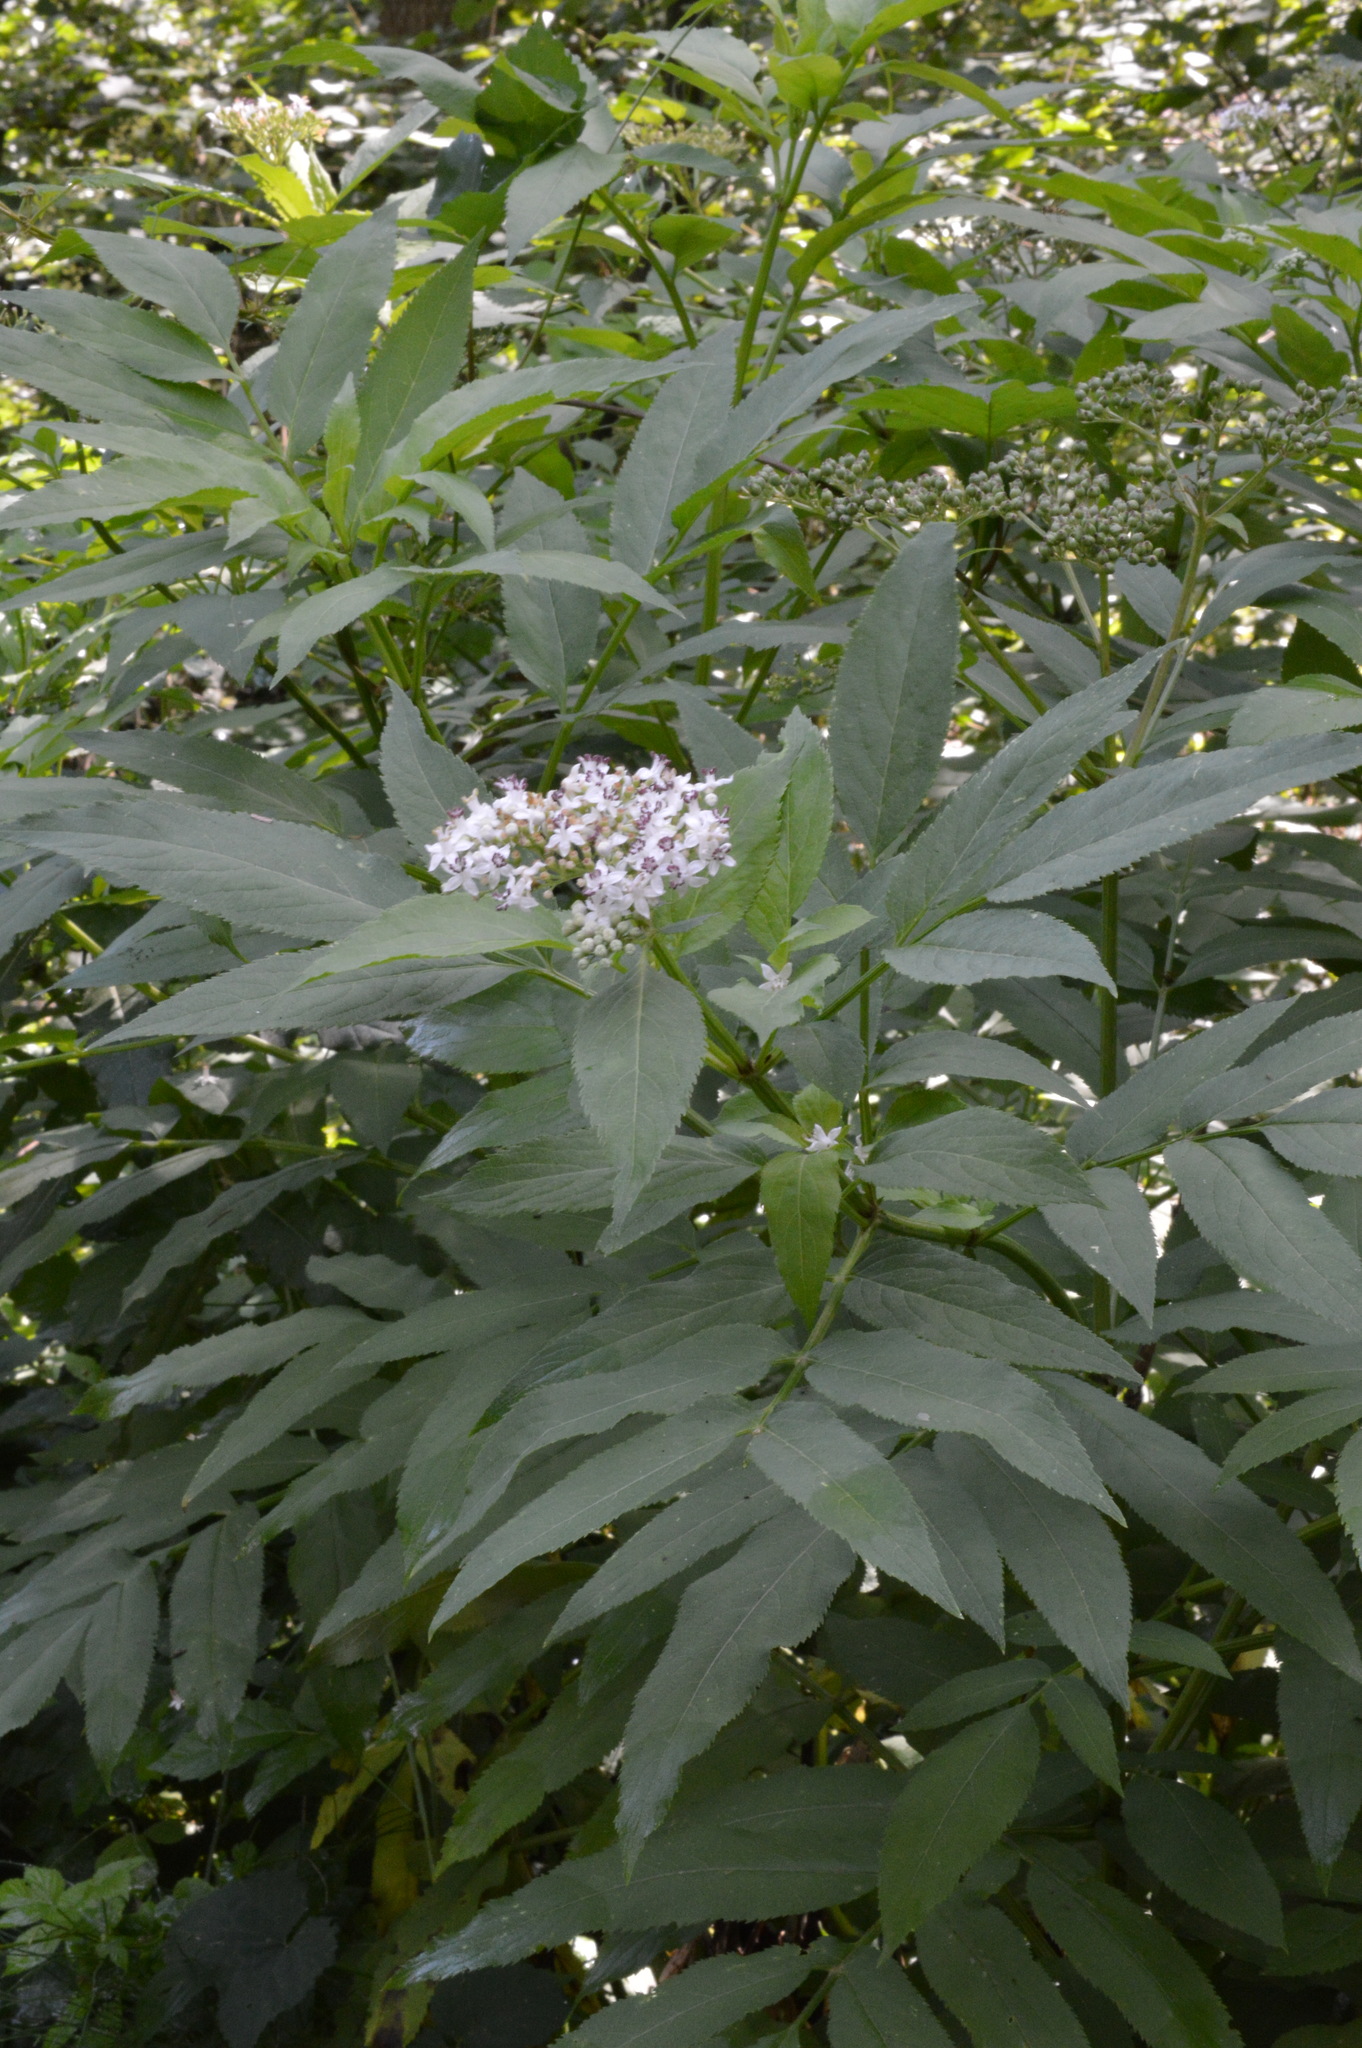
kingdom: Plantae
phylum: Tracheophyta
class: Magnoliopsida
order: Dipsacales
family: Viburnaceae
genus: Sambucus
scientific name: Sambucus ebulus
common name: Dwarf elder
